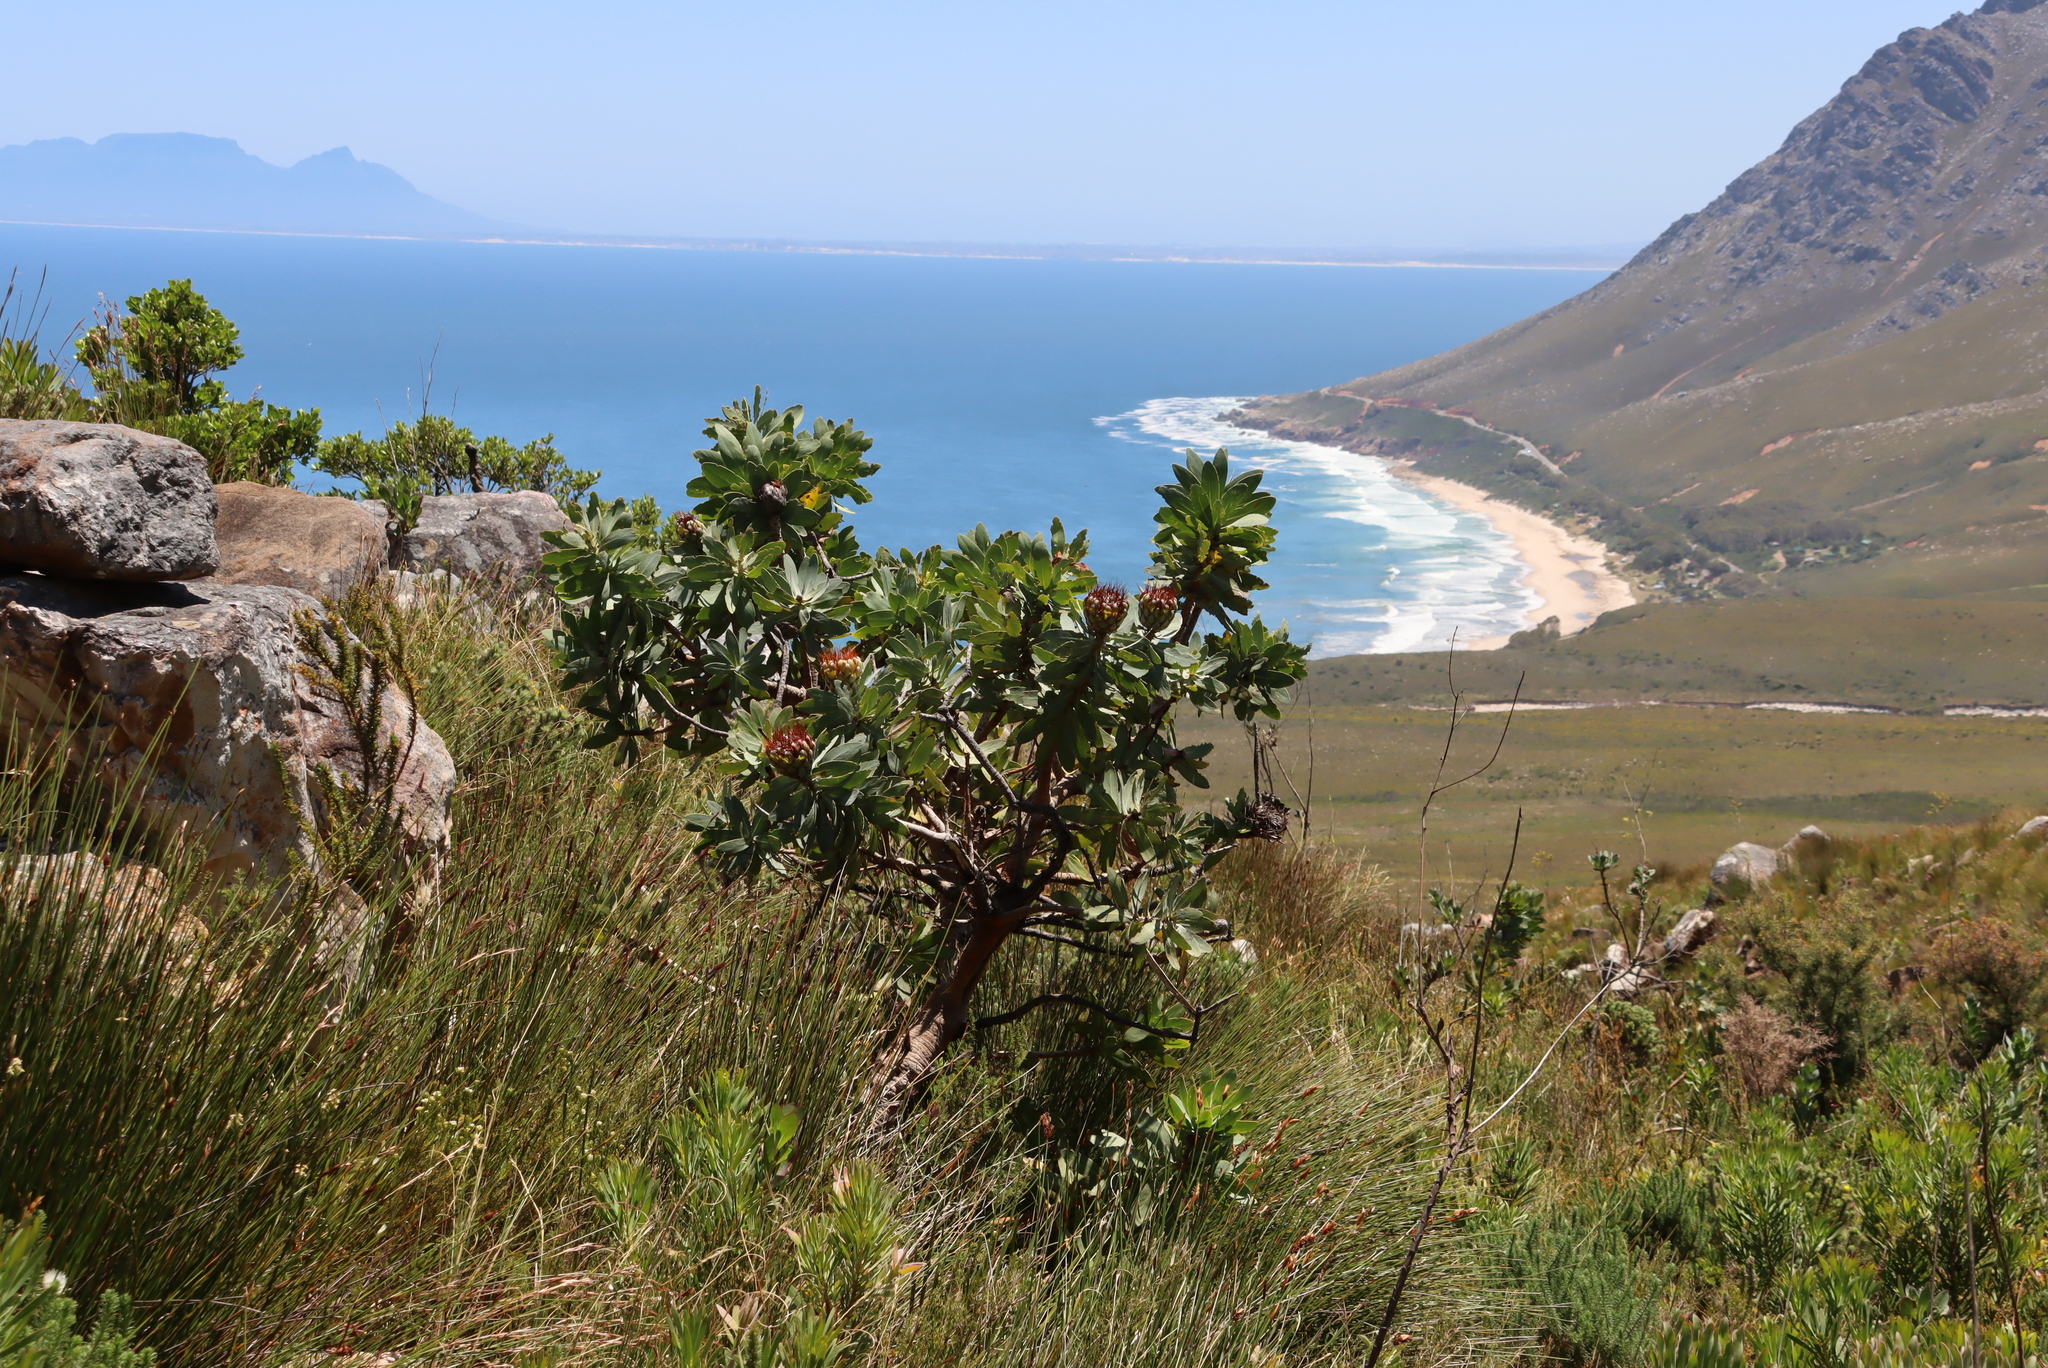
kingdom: Plantae
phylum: Tracheophyta
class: Magnoliopsida
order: Proteales
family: Proteaceae
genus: Protea
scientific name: Protea nitida
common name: Tree protea
